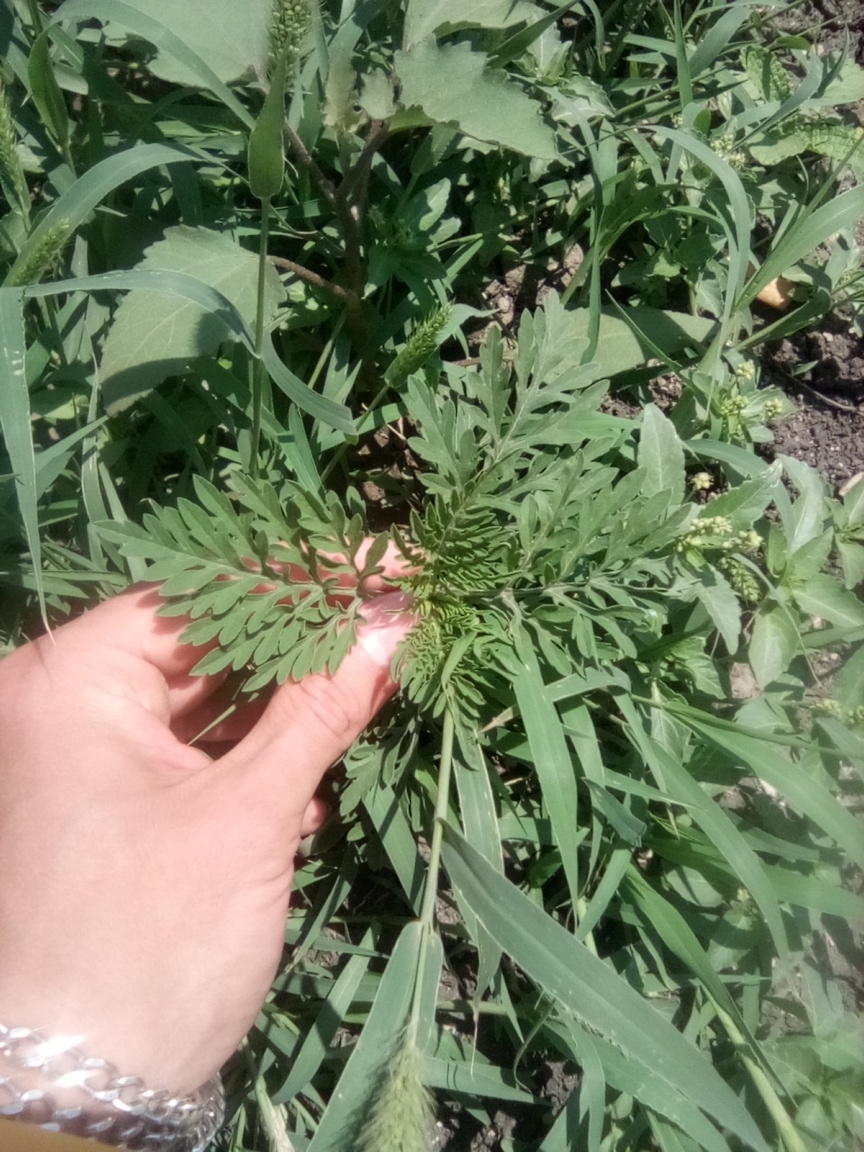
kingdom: Plantae
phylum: Tracheophyta
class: Magnoliopsida
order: Asterales
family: Asteraceae
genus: Ambrosia
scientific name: Ambrosia artemisiifolia
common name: Annual ragweed
